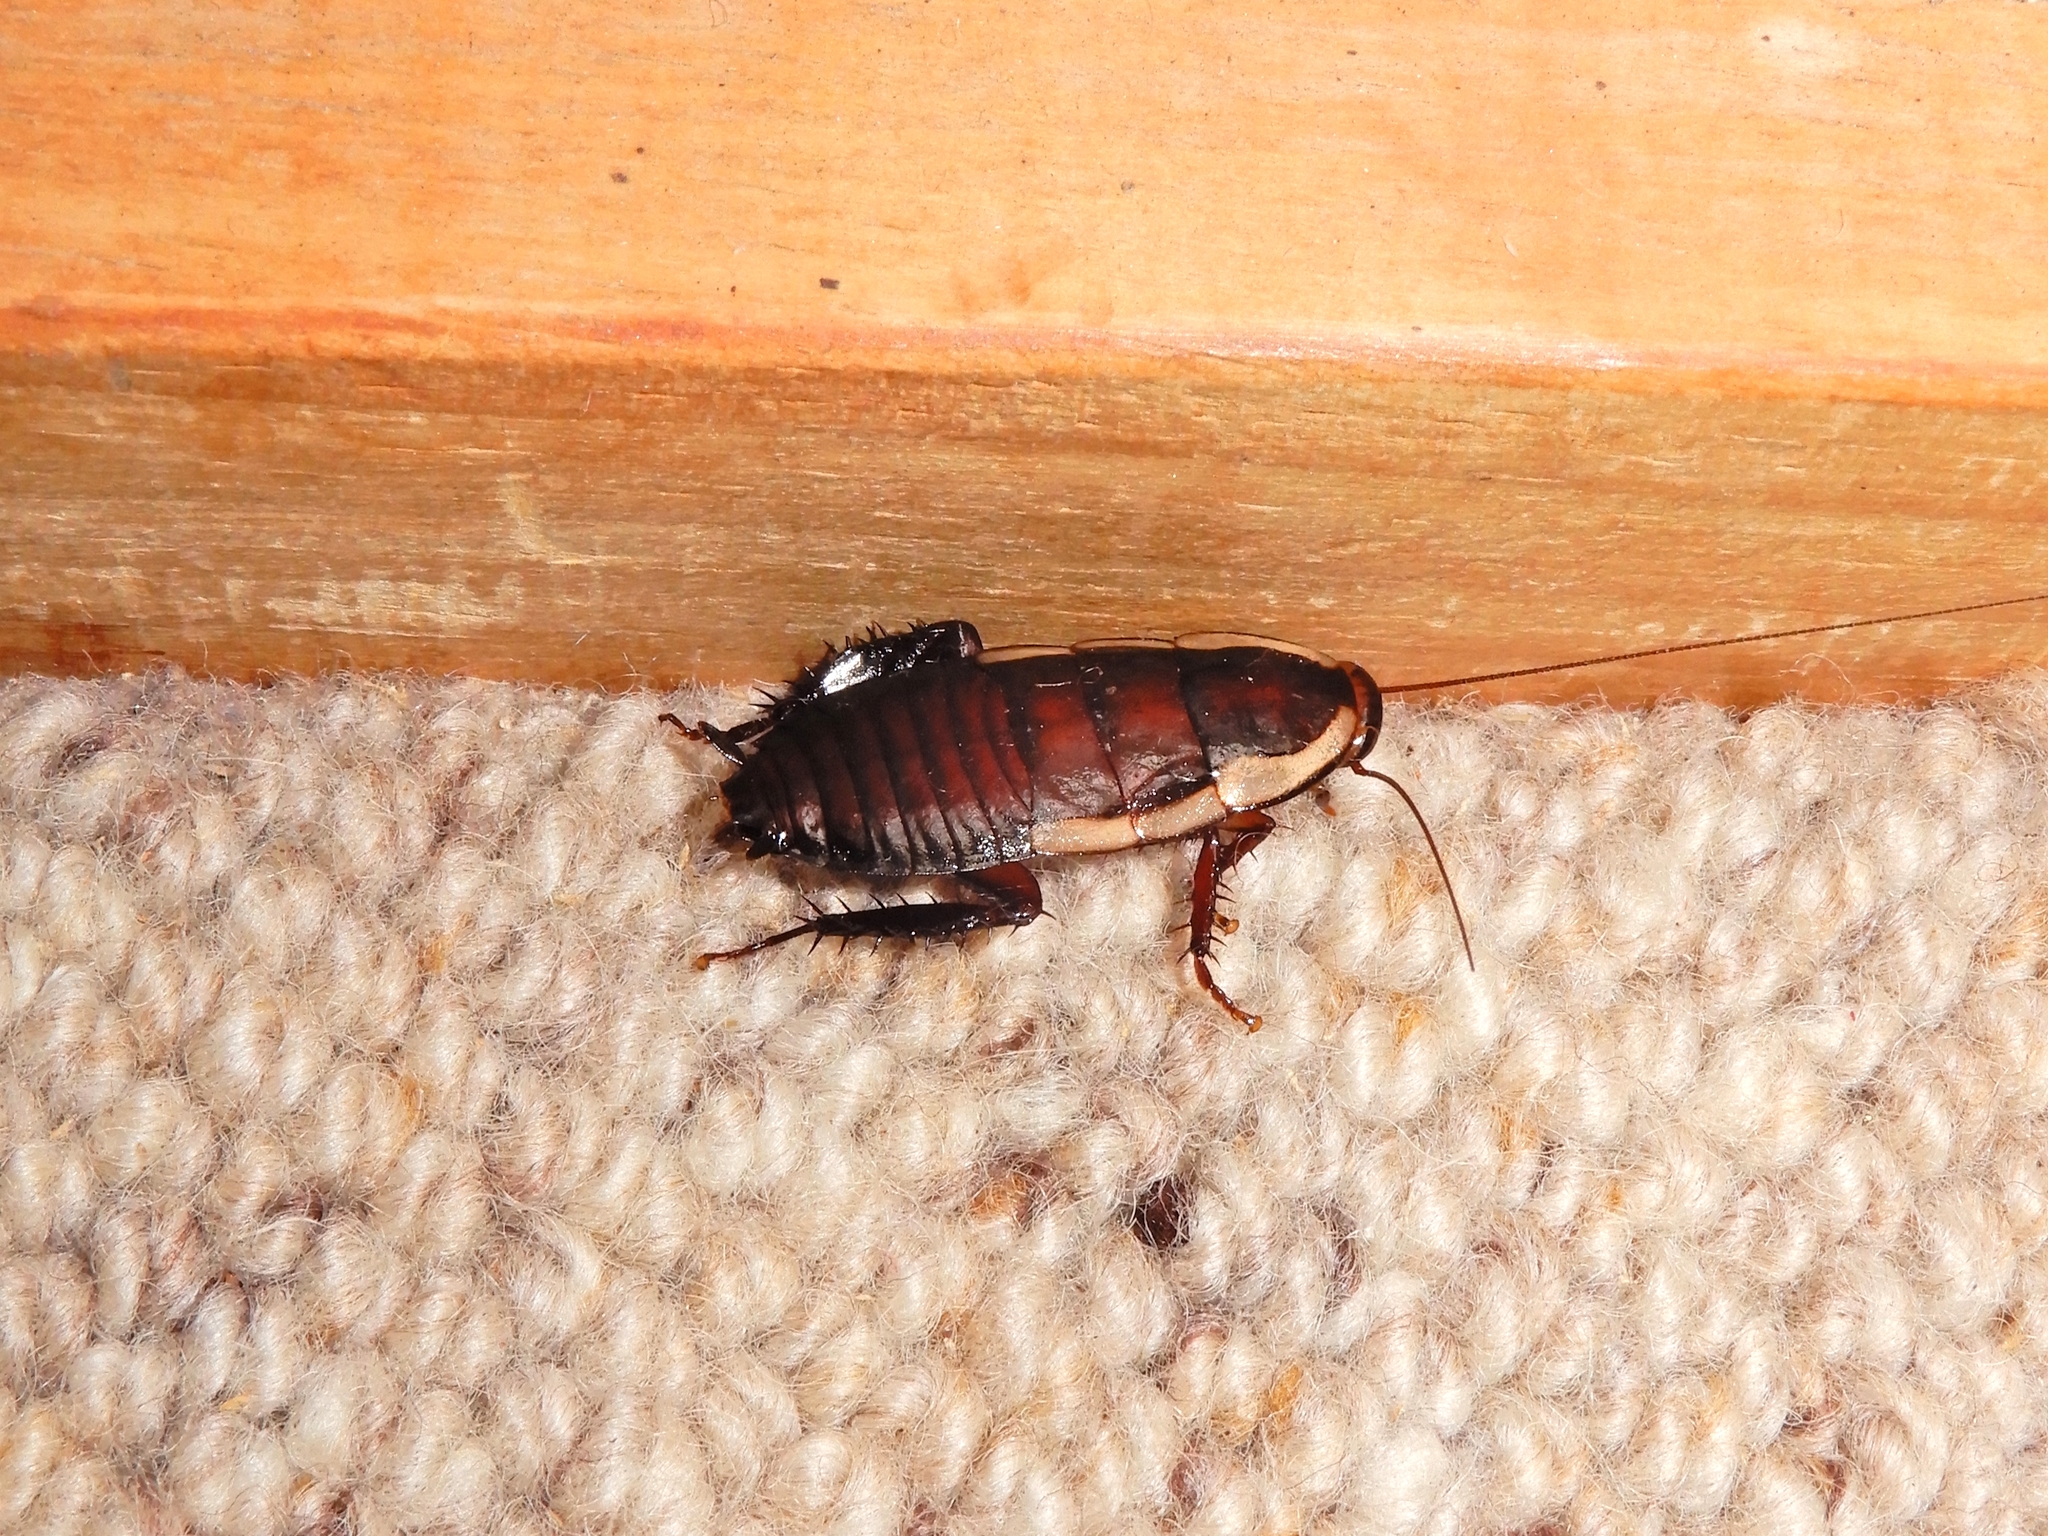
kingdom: Animalia
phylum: Arthropoda
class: Insecta
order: Blattodea
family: Blattidae
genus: Drymaplaneta
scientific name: Drymaplaneta semivitta
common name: Gisborne cockroach
